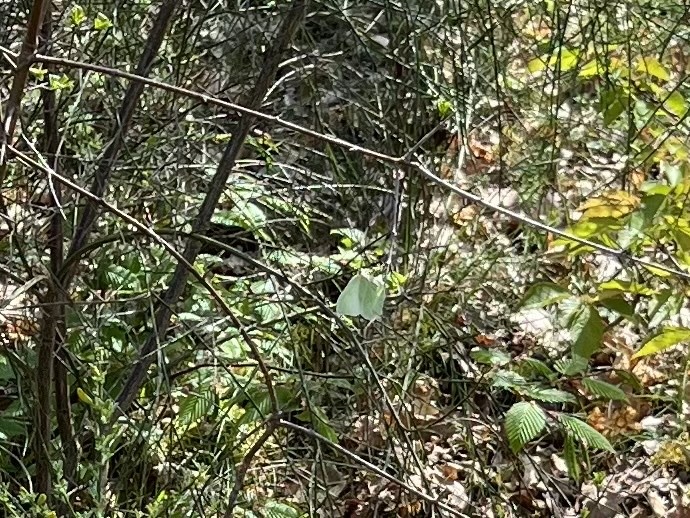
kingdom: Animalia
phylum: Arthropoda
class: Insecta
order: Lepidoptera
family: Pieridae
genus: Gonepteryx
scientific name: Gonepteryx rhamni
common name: Brimstone
